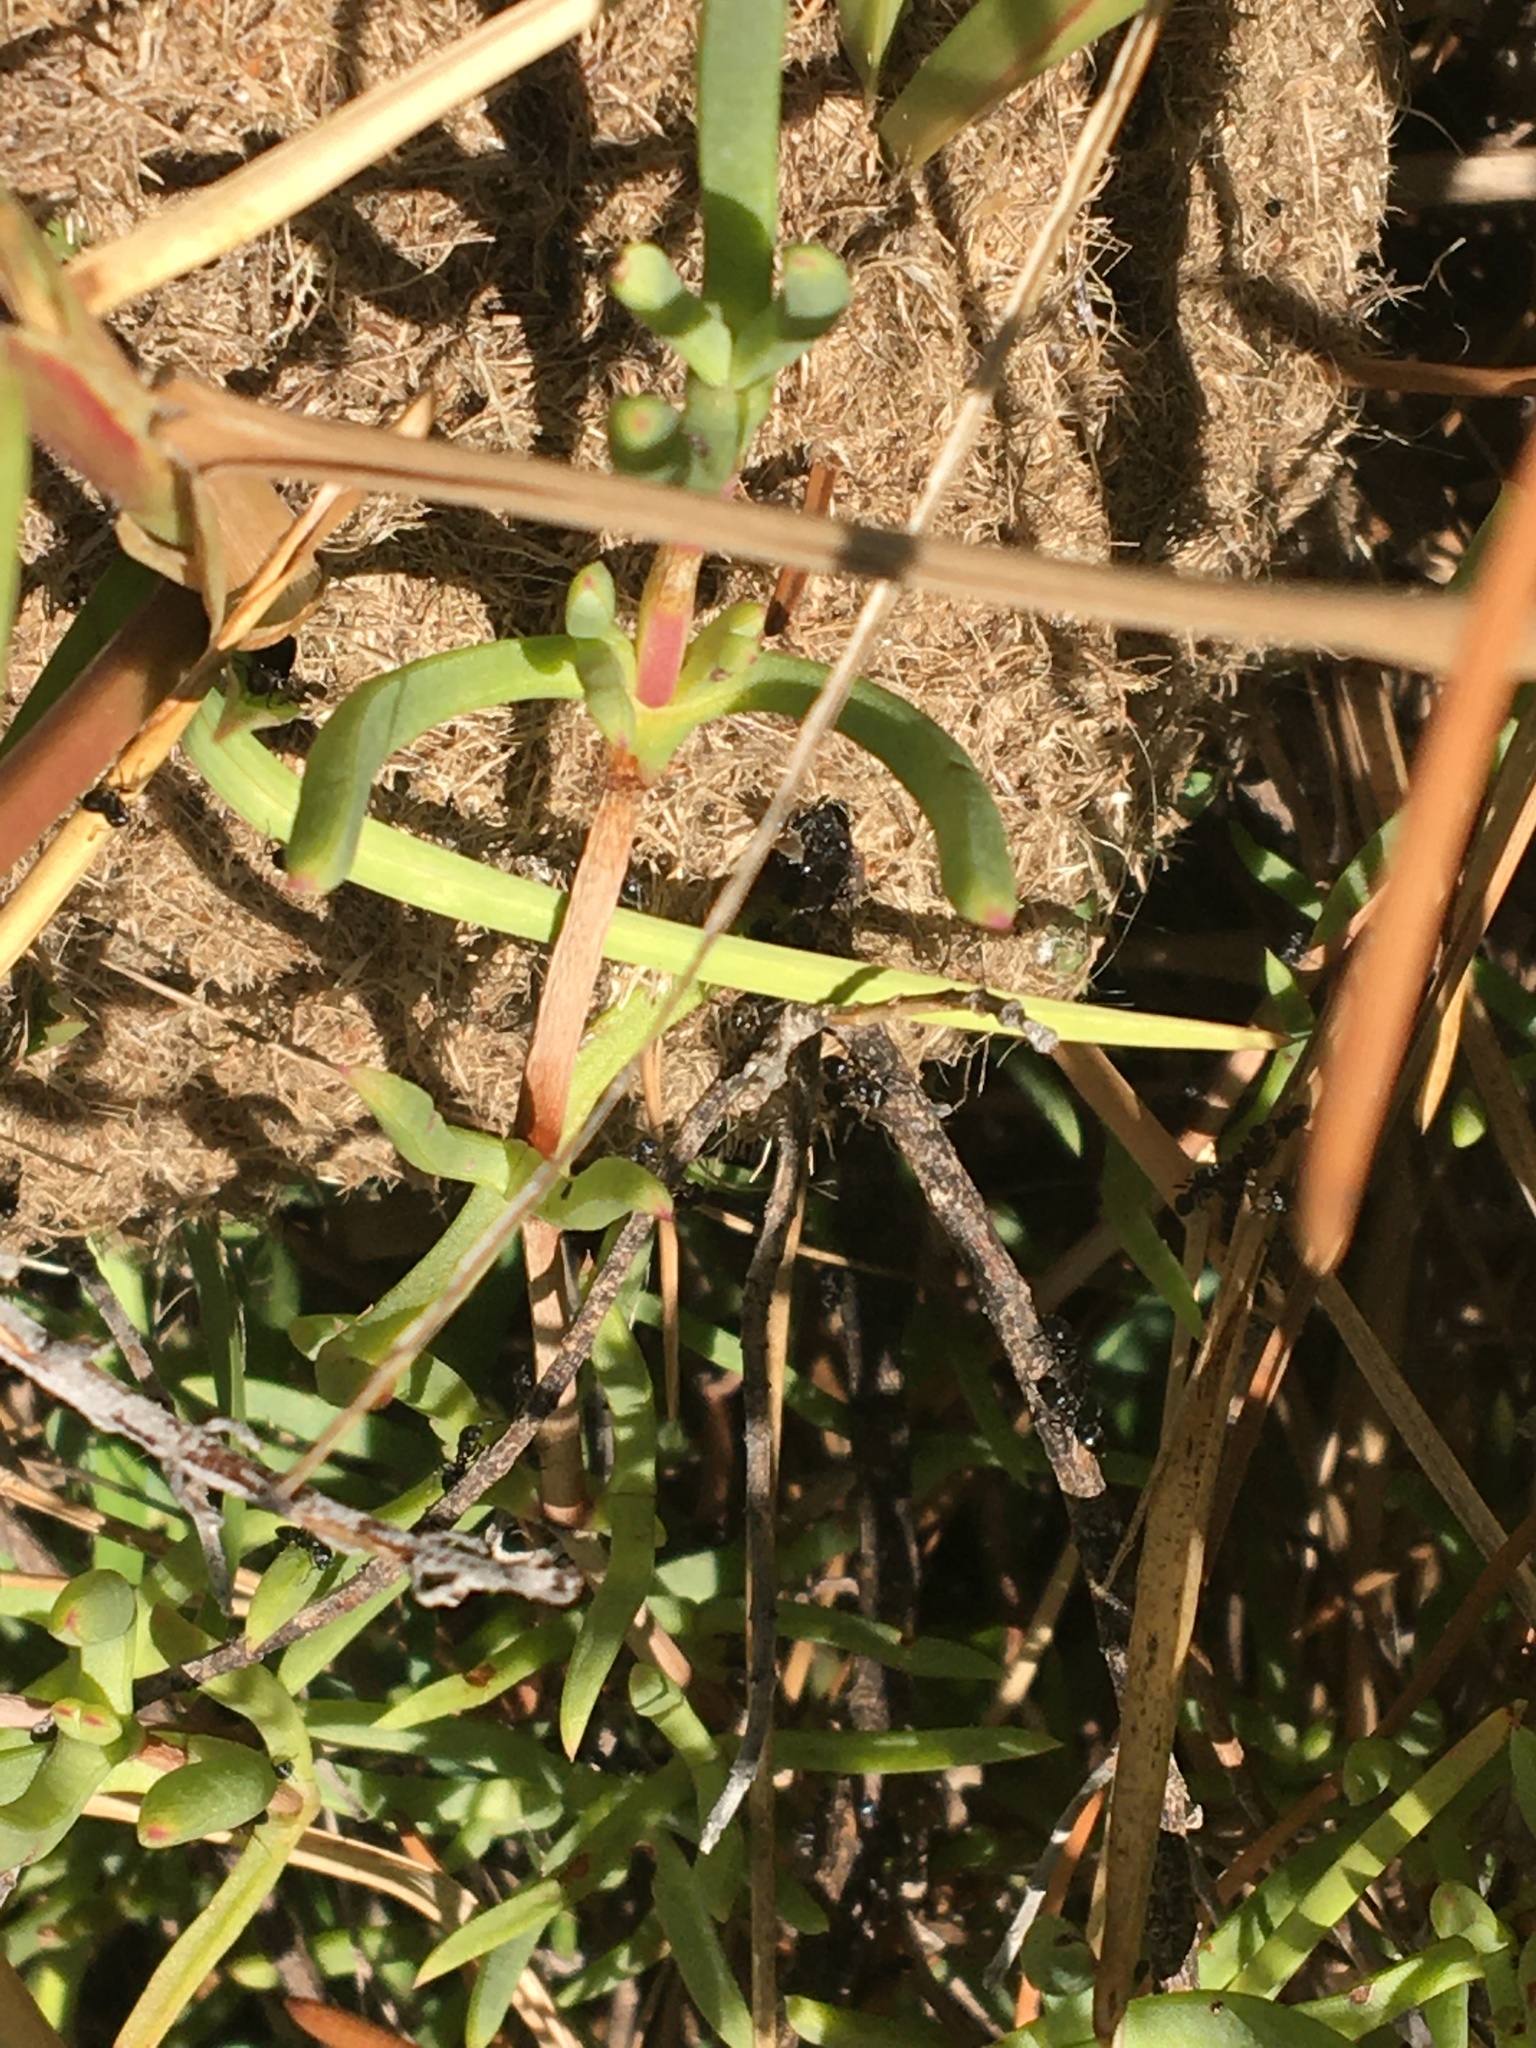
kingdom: Animalia
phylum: Arthropoda
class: Insecta
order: Hymenoptera
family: Formicidae
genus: Crematogaster
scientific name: Crematogaster peringueyi
